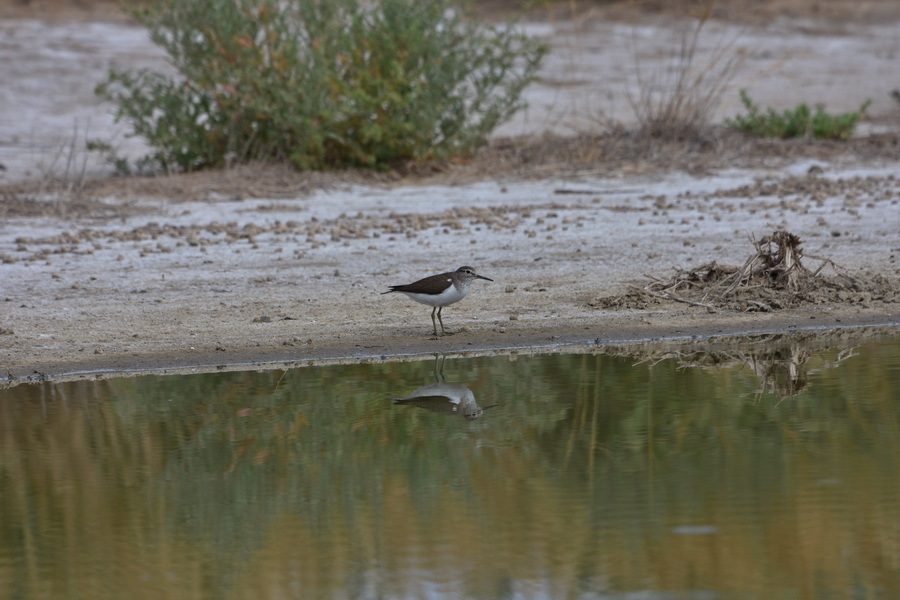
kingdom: Animalia
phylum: Chordata
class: Aves
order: Charadriiformes
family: Scolopacidae
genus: Actitis
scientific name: Actitis hypoleucos
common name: Common sandpiper
